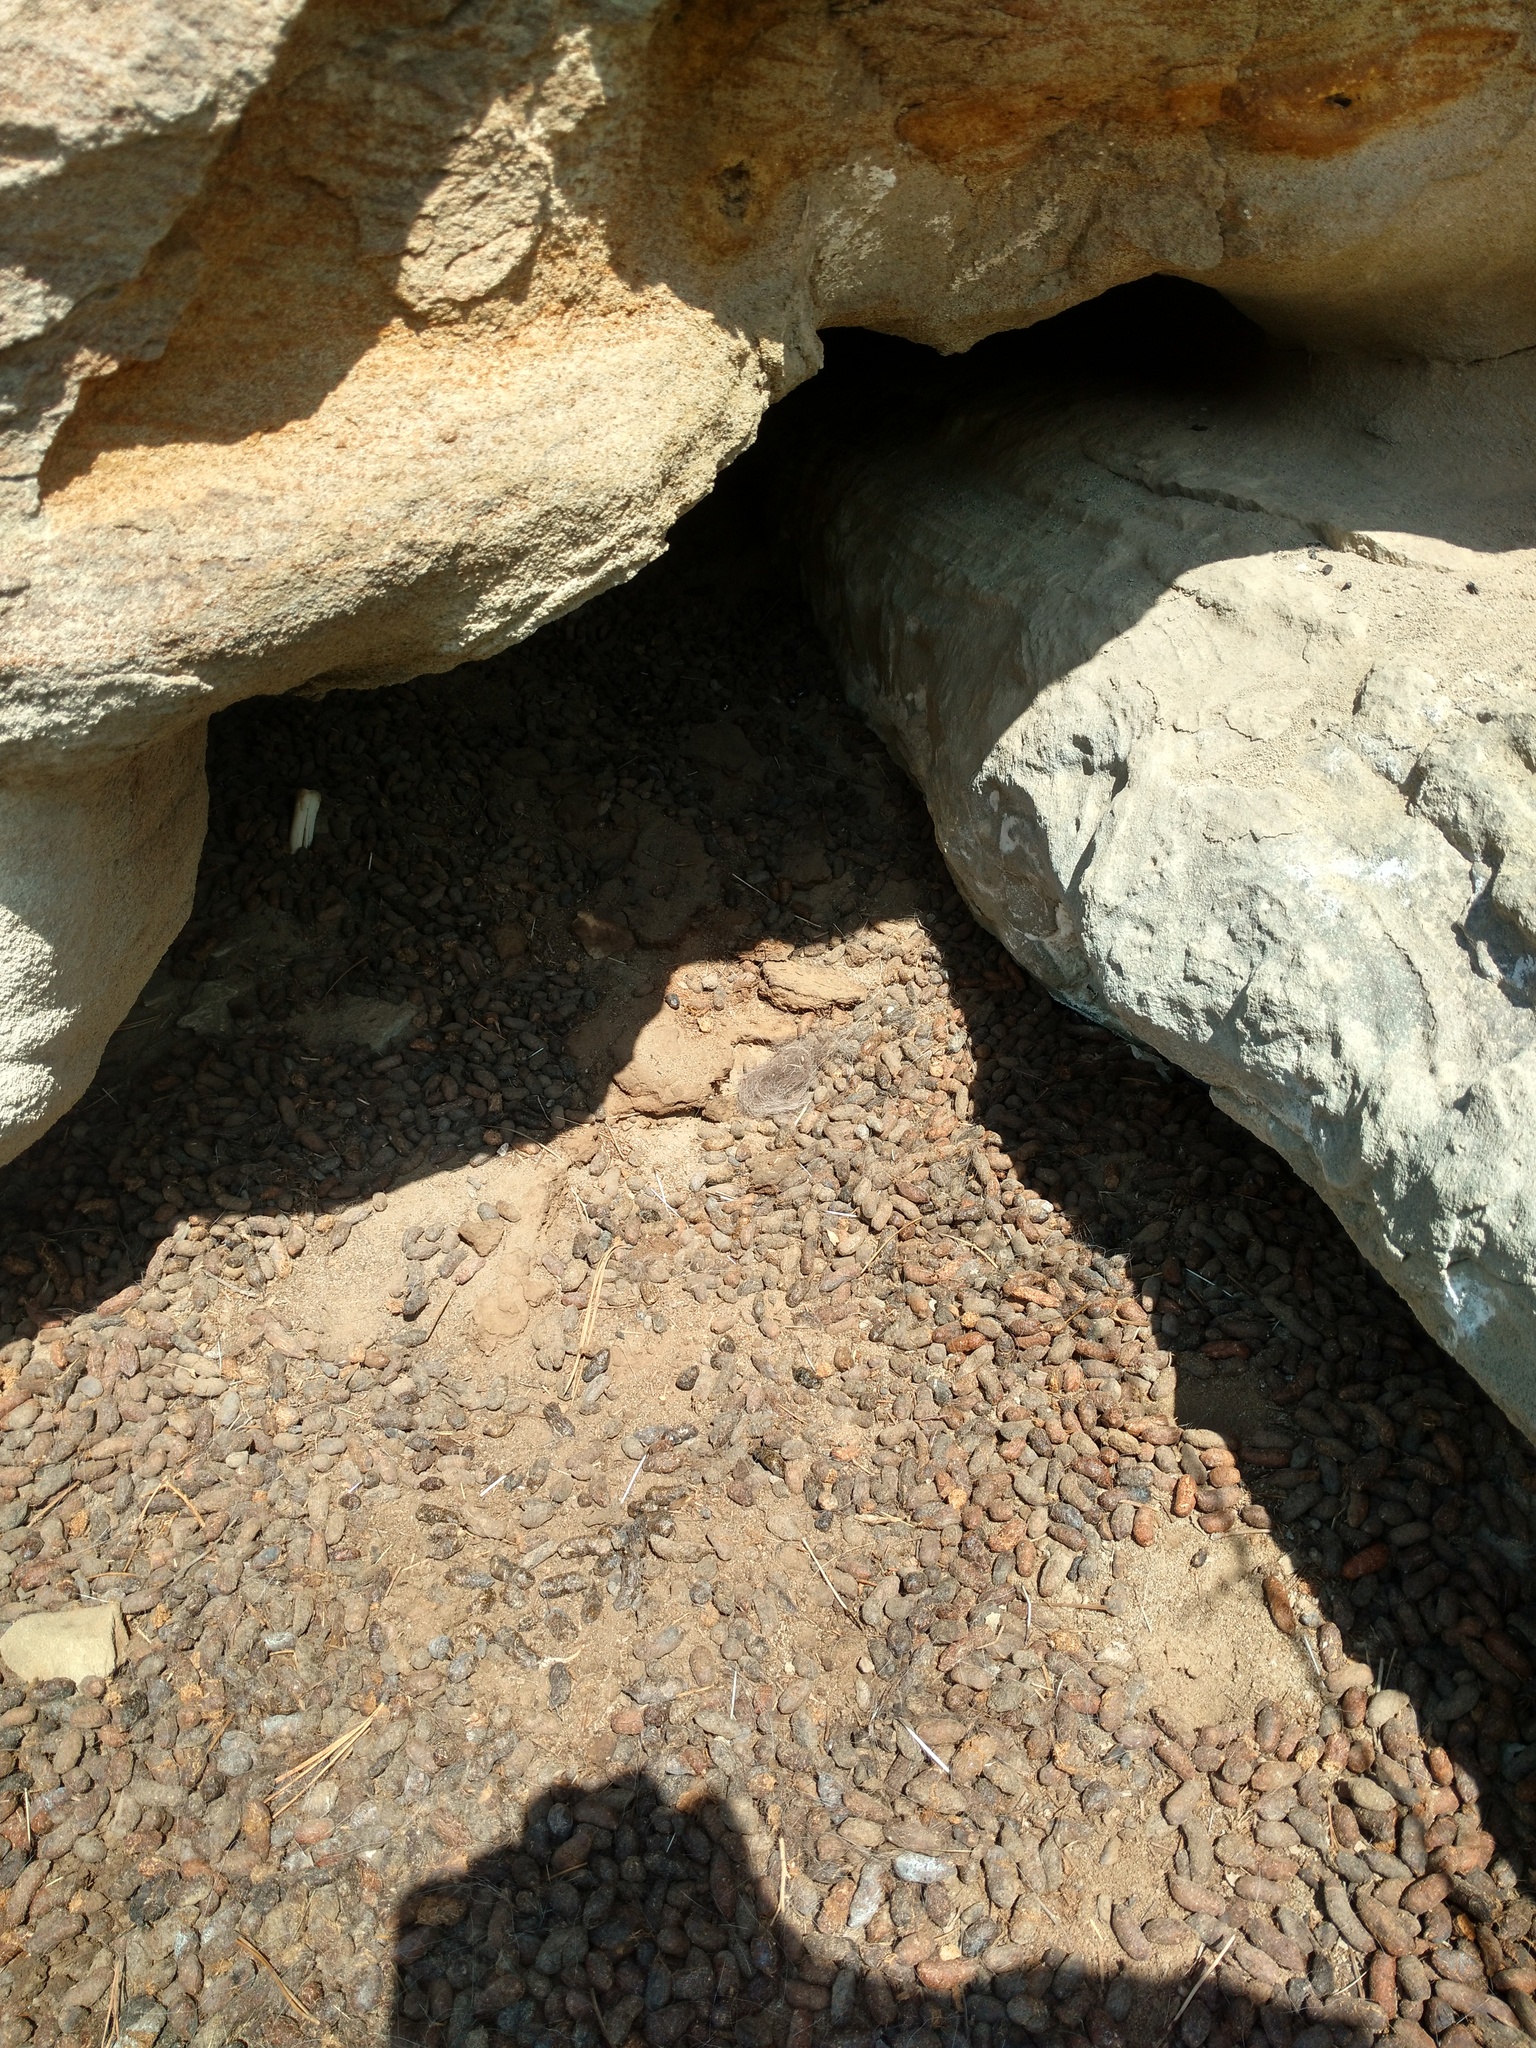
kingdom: Animalia
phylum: Chordata
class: Mammalia
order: Rodentia
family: Erethizontidae
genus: Erethizon
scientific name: Erethizon dorsatus
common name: North american porcupine
